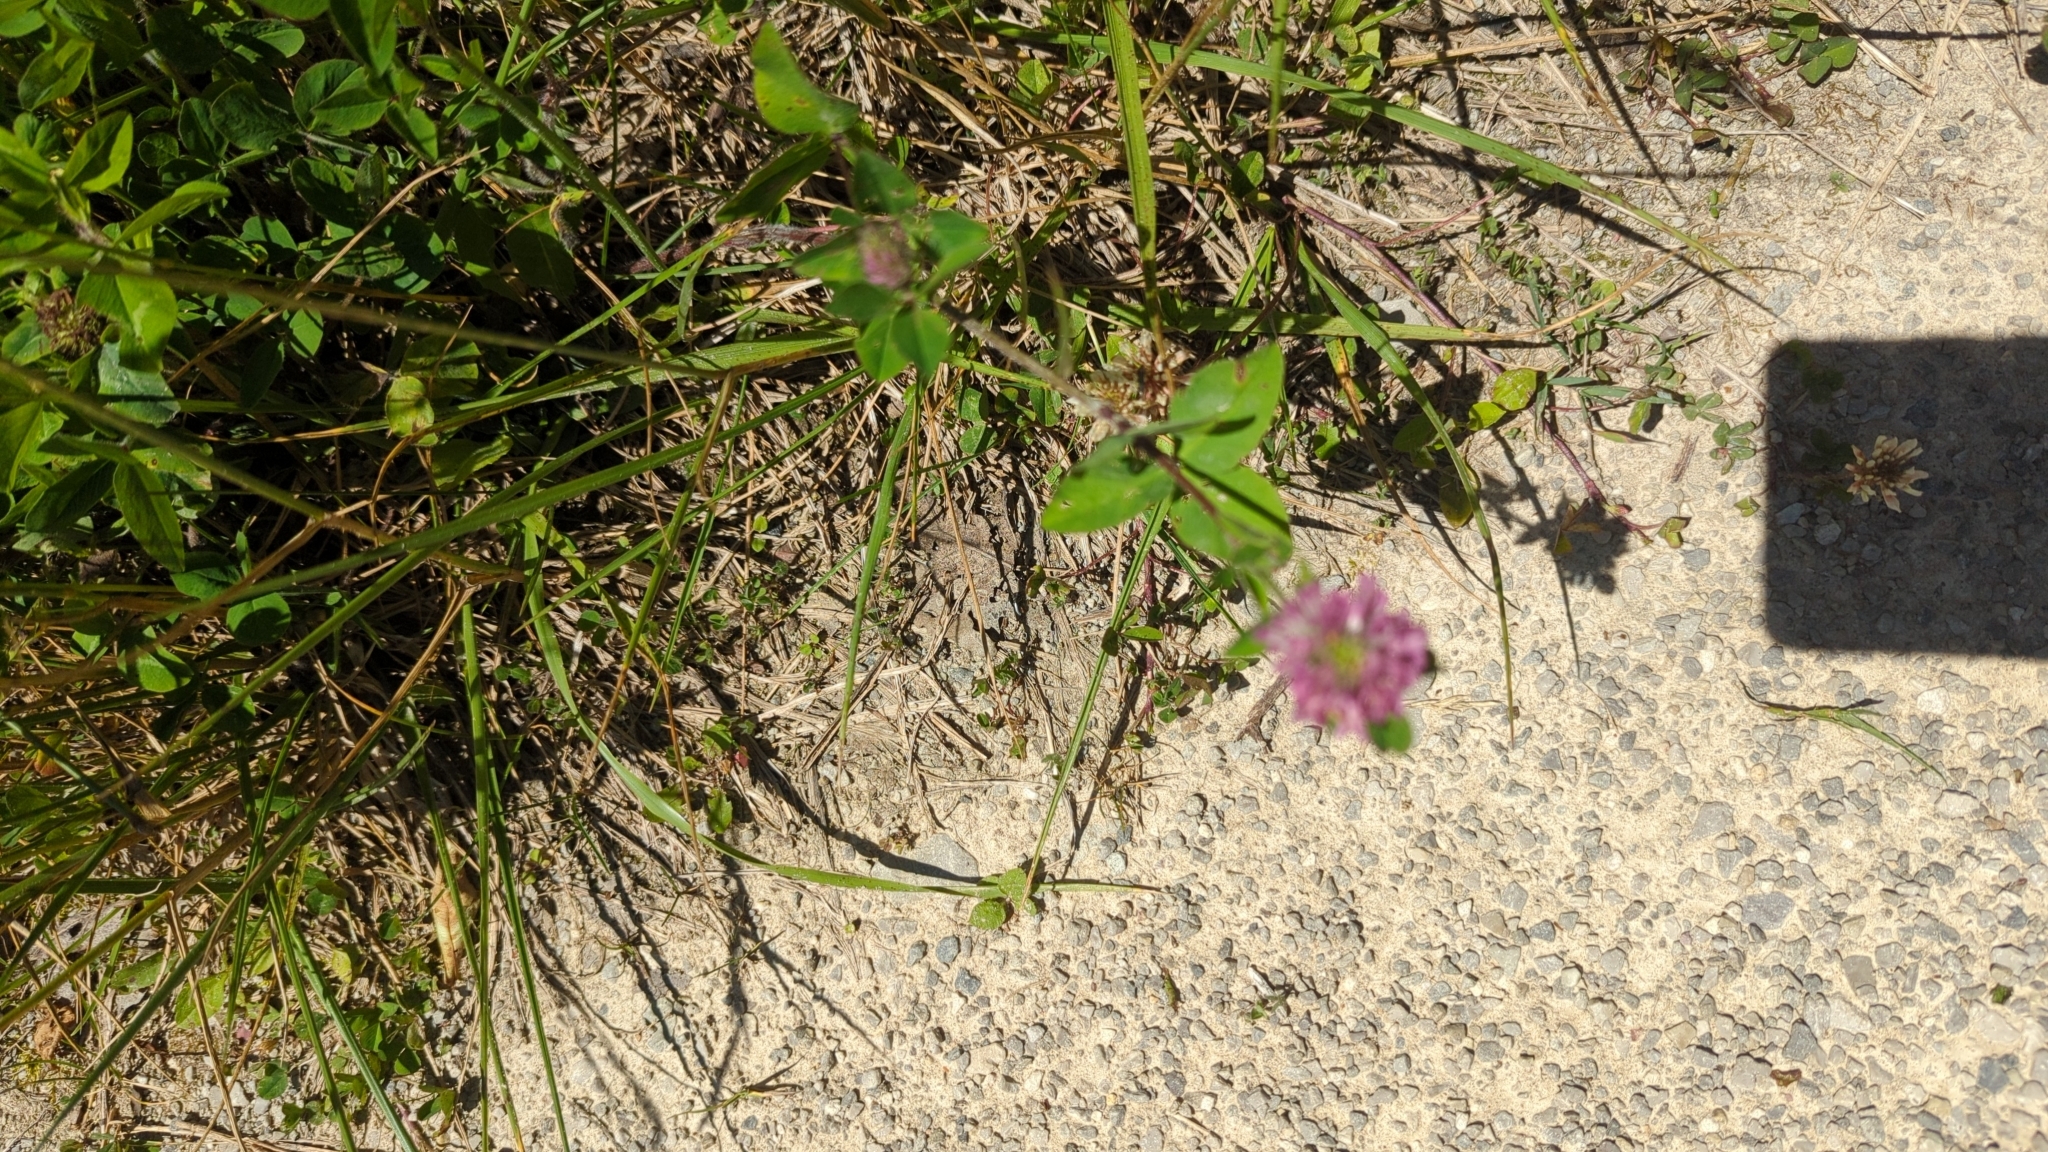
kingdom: Plantae
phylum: Tracheophyta
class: Magnoliopsida
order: Fabales
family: Fabaceae
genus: Trifolium
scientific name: Trifolium pratense
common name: Red clover
